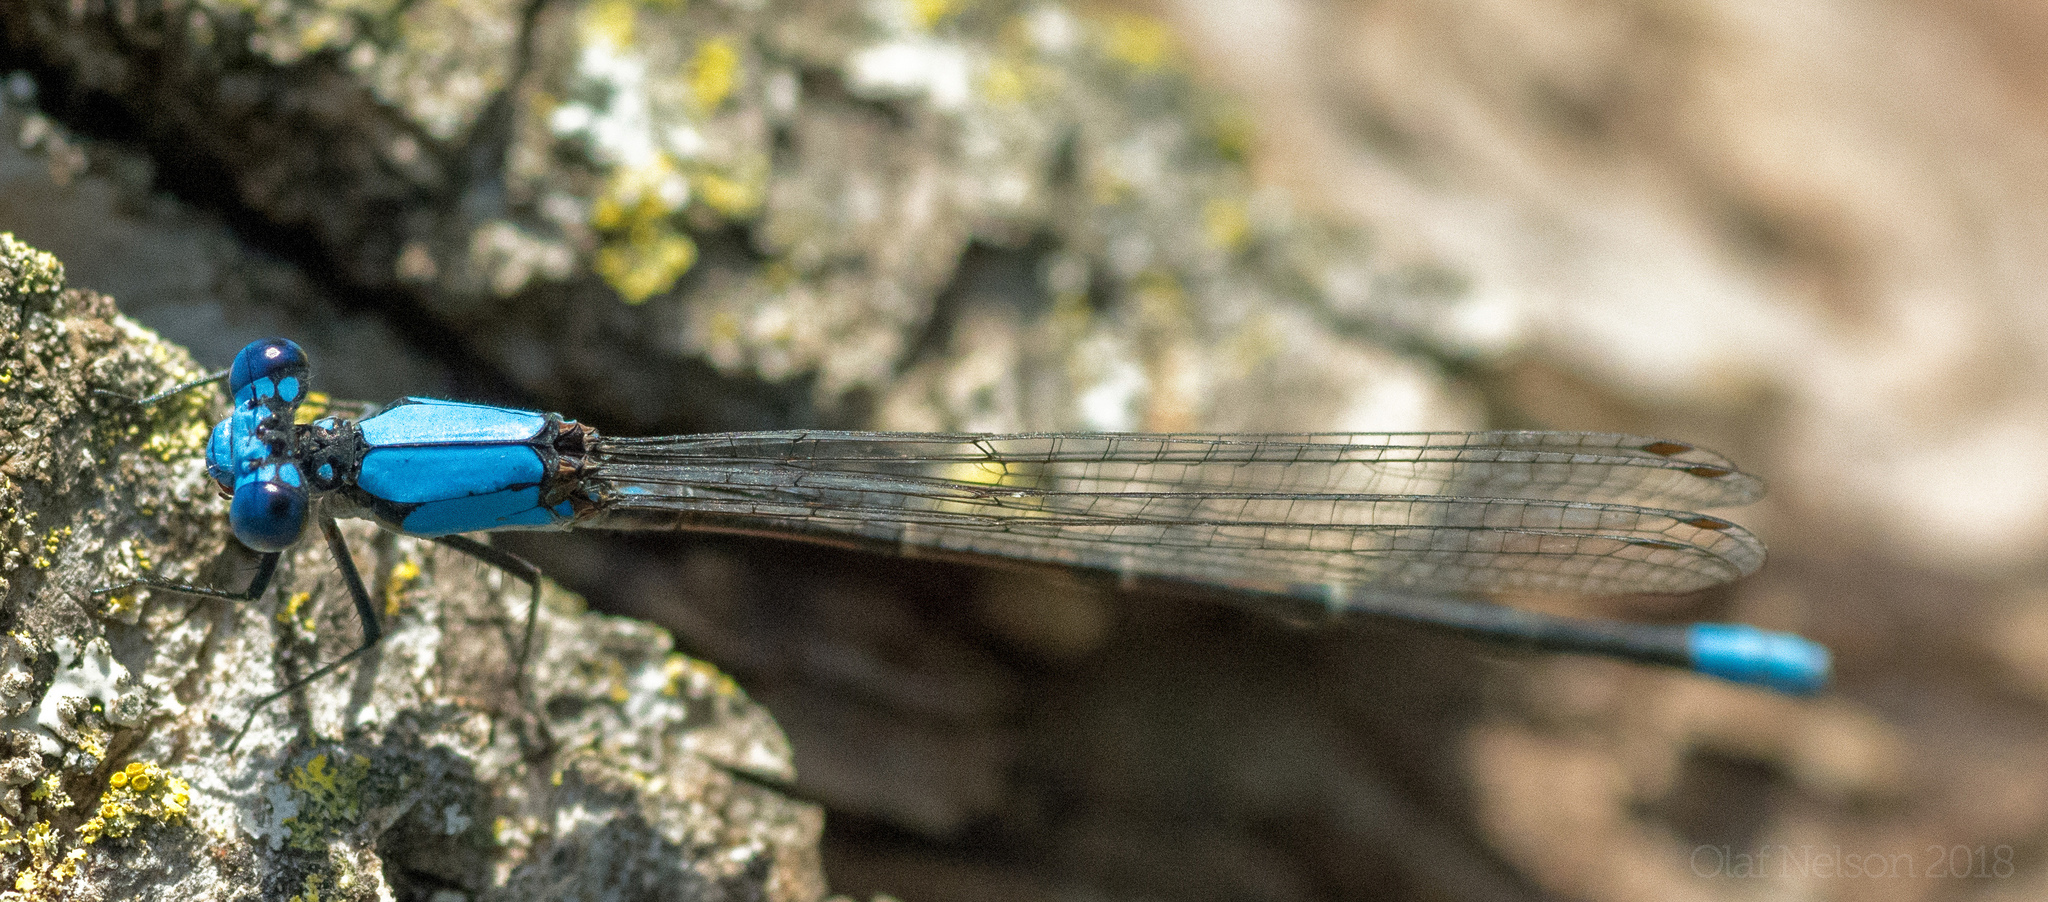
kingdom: Animalia
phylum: Arthropoda
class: Insecta
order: Odonata
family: Coenagrionidae
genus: Argia
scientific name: Argia apicalis
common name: Blue-fronted dancer
